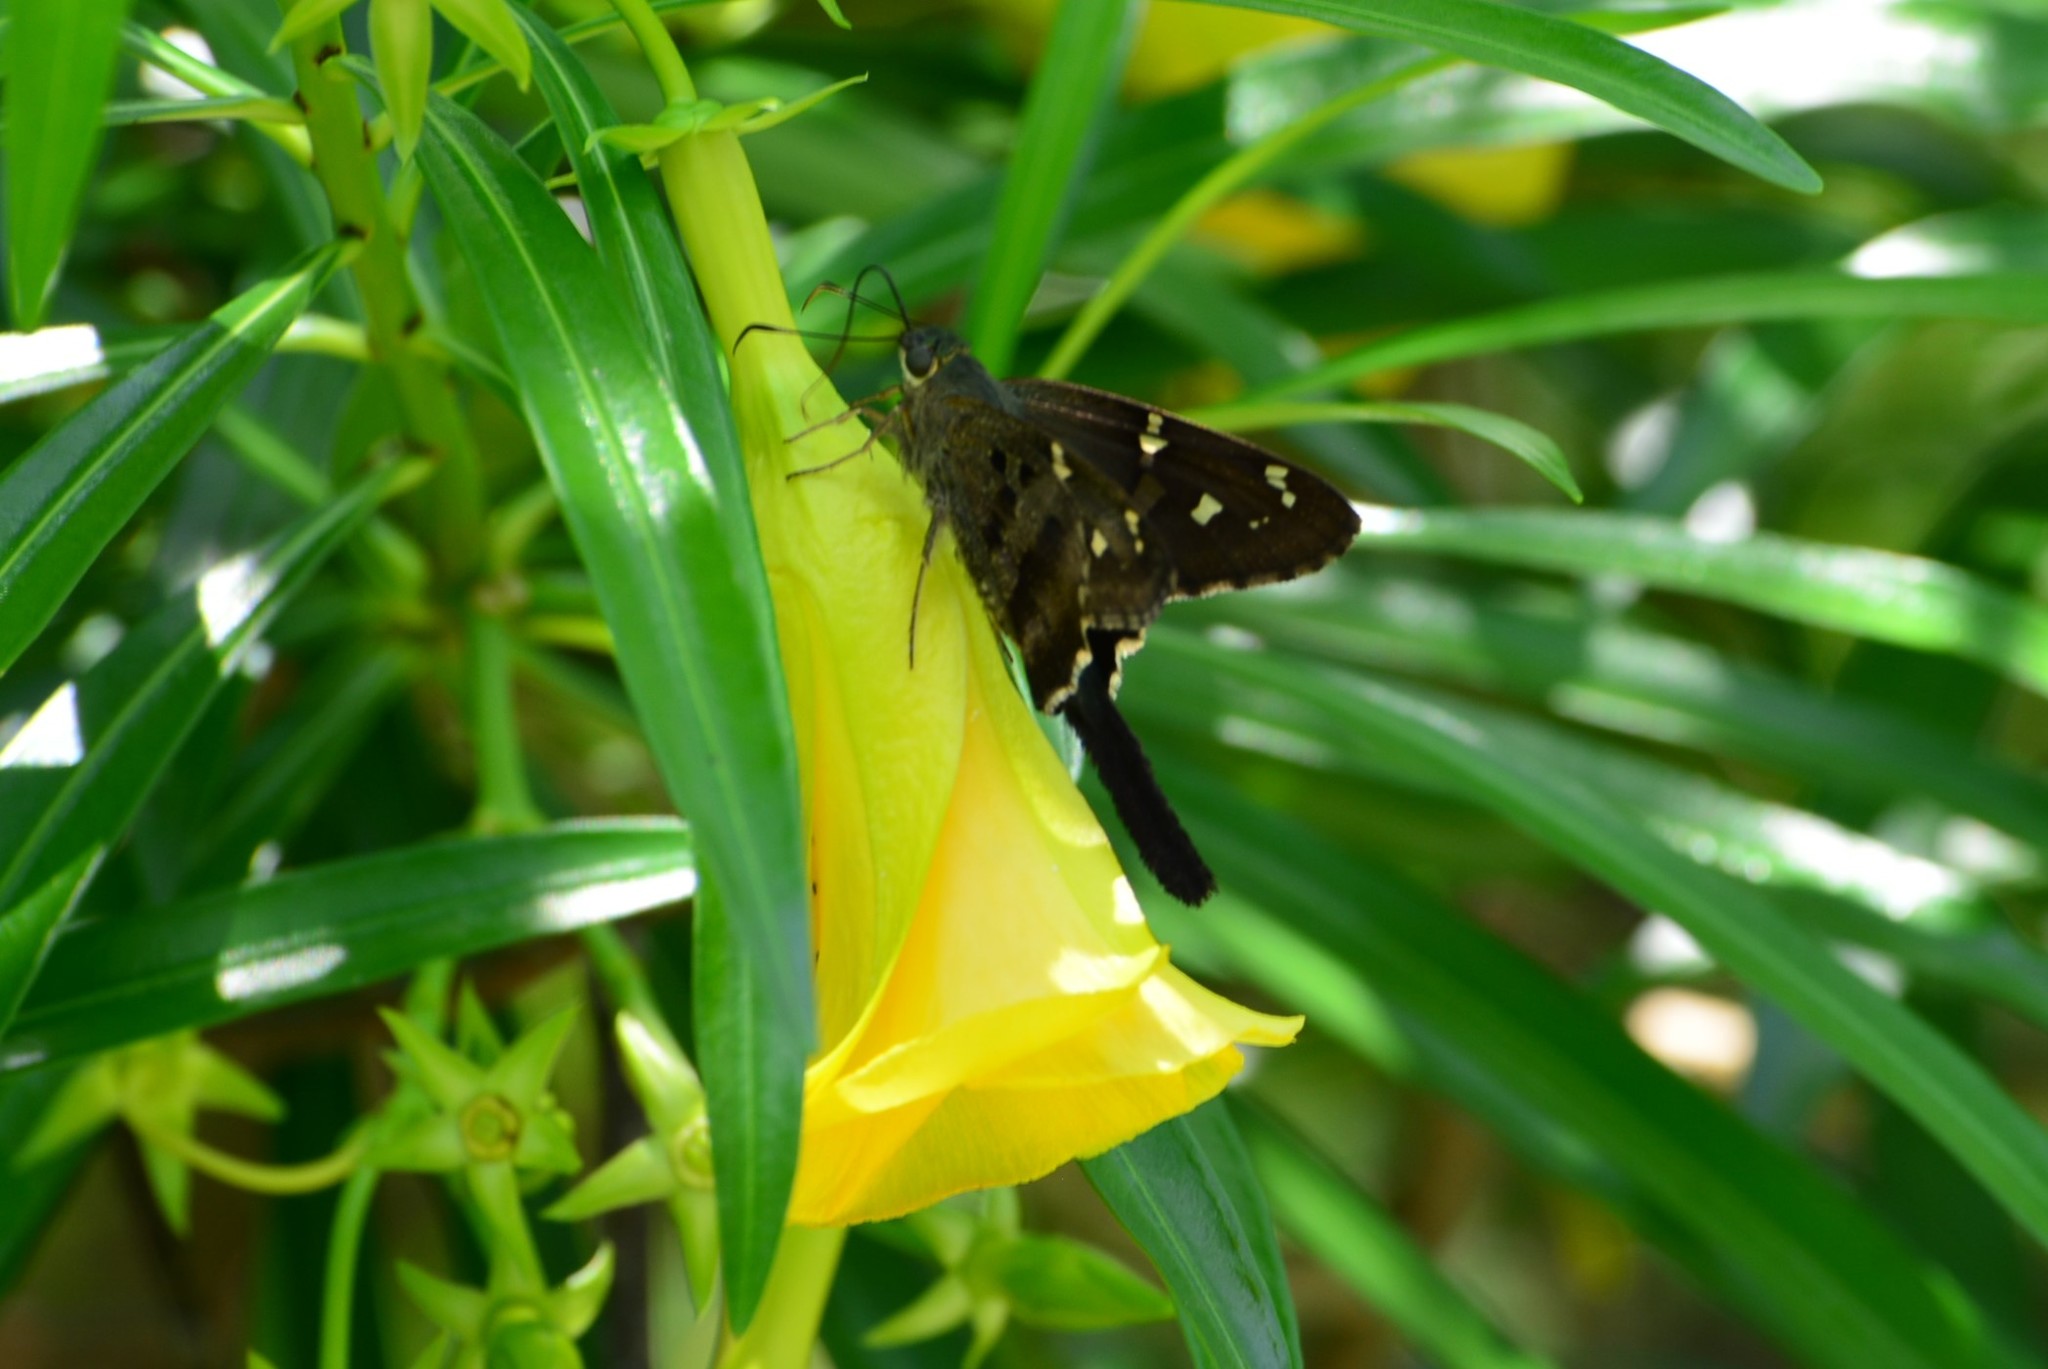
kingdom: Animalia
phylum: Arthropoda
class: Insecta
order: Lepidoptera
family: Hesperiidae
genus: Thorybes
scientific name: Thorybes
